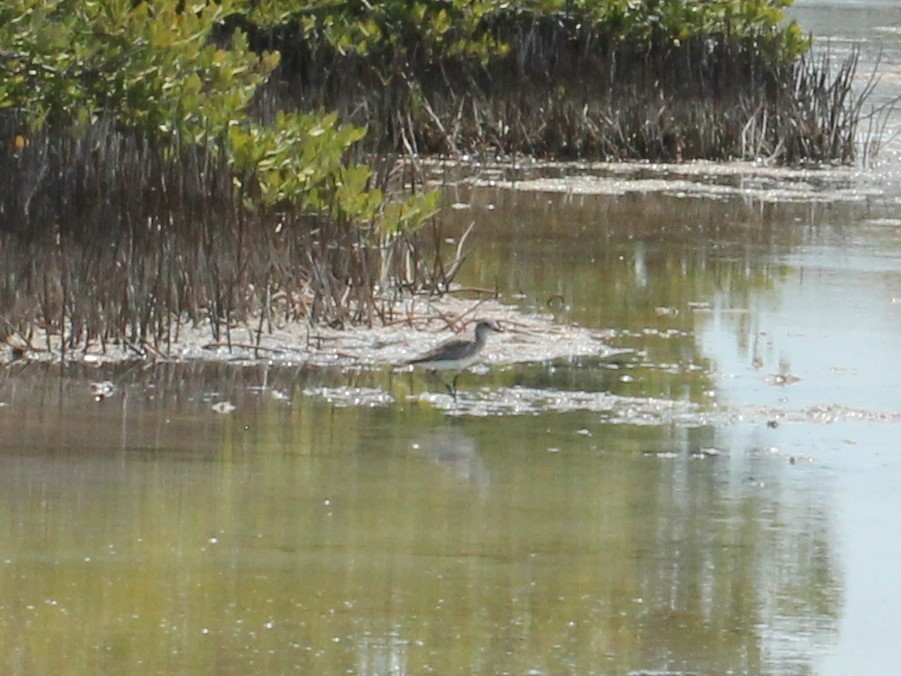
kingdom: Animalia
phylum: Chordata
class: Aves
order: Charadriiformes
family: Charadriidae
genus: Pluvialis
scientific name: Pluvialis squatarola
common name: Grey plover
